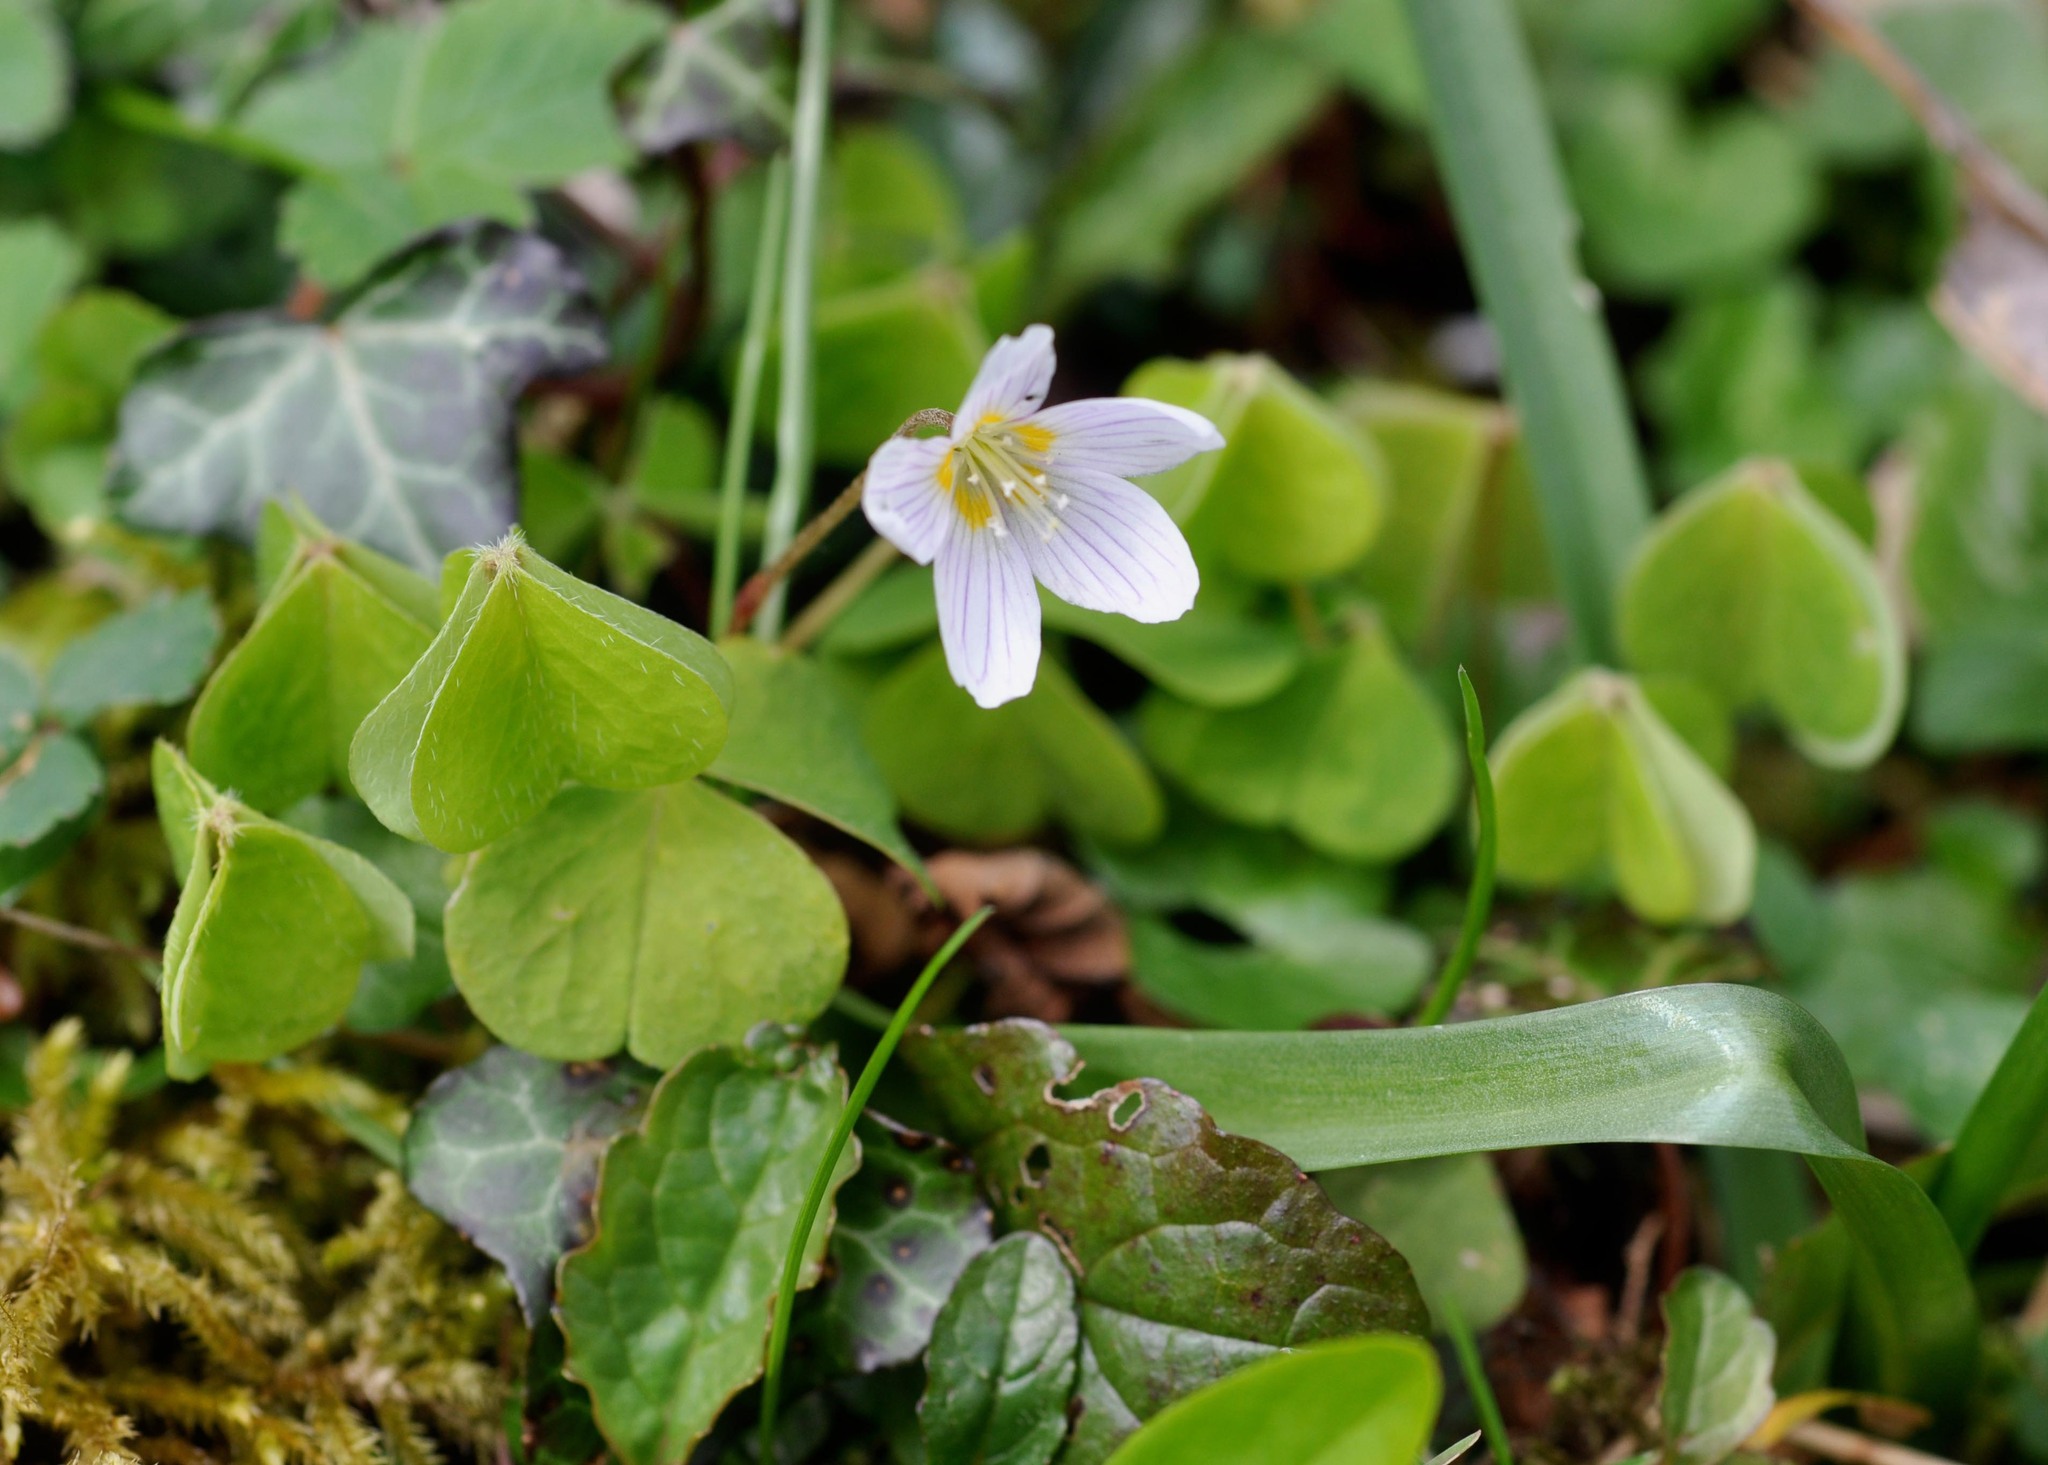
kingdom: Plantae
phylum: Tracheophyta
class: Magnoliopsida
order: Oxalidales
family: Oxalidaceae
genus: Oxalis
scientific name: Oxalis acetosella
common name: Wood-sorrel
